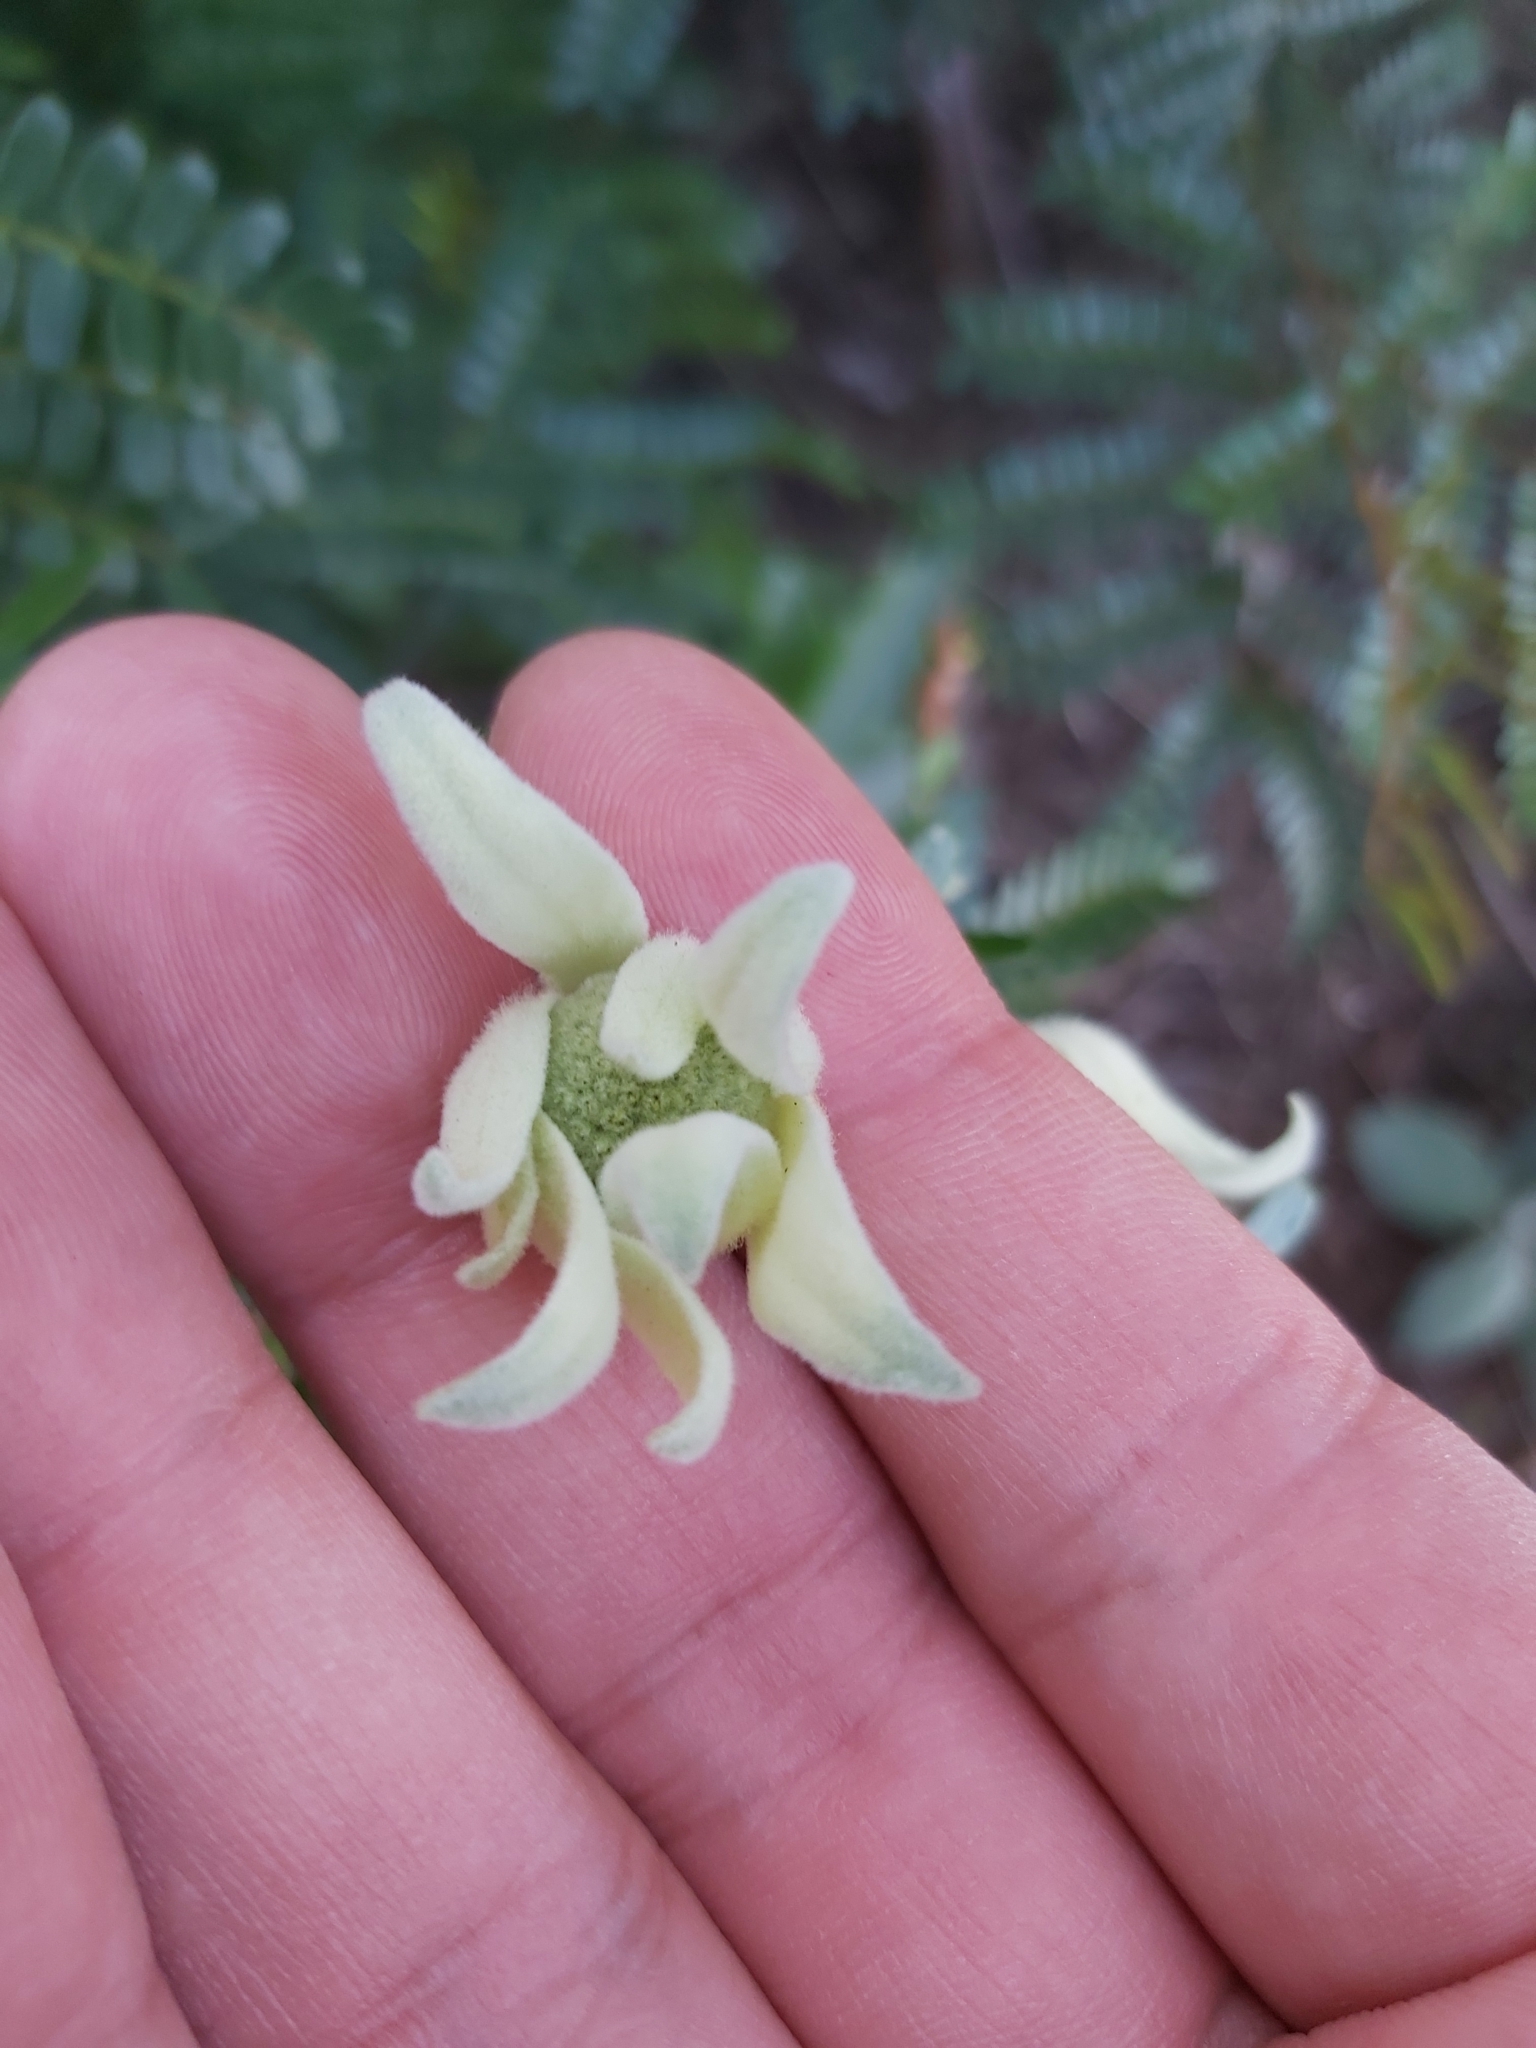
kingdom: Plantae
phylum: Tracheophyta
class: Magnoliopsida
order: Apiales
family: Apiaceae
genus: Actinotus
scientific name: Actinotus helianthi
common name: Flannel-flower
